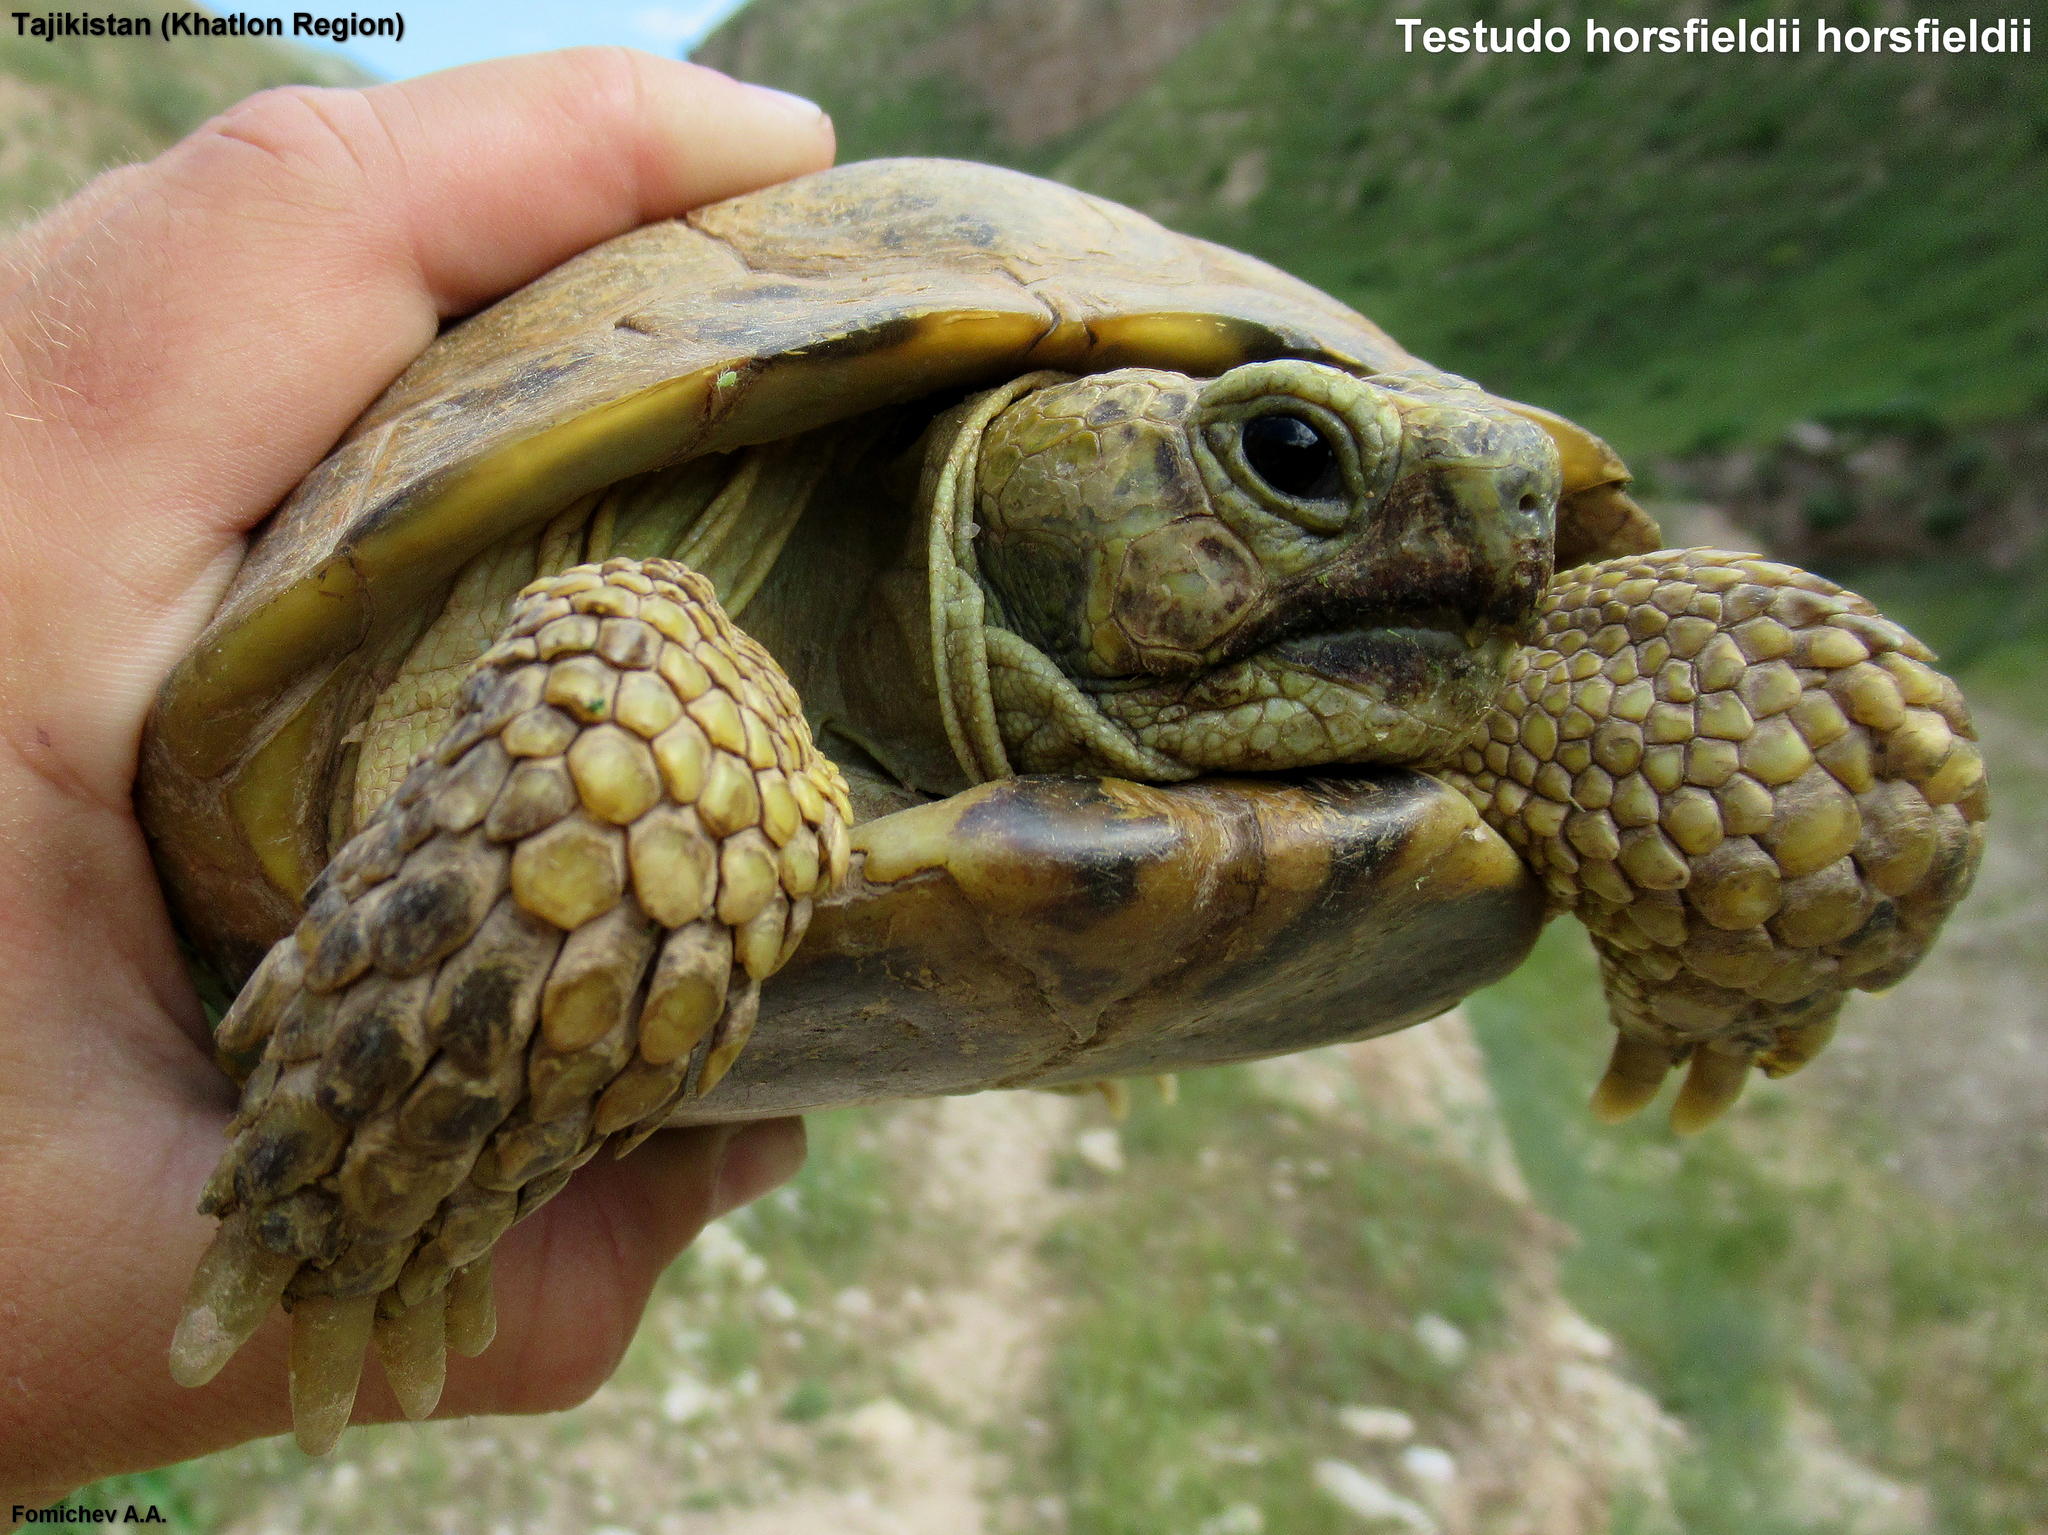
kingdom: Animalia
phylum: Chordata
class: Testudines
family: Testudinidae
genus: Testudo
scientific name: Testudo horsfieldii
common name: Central asia tortoise
